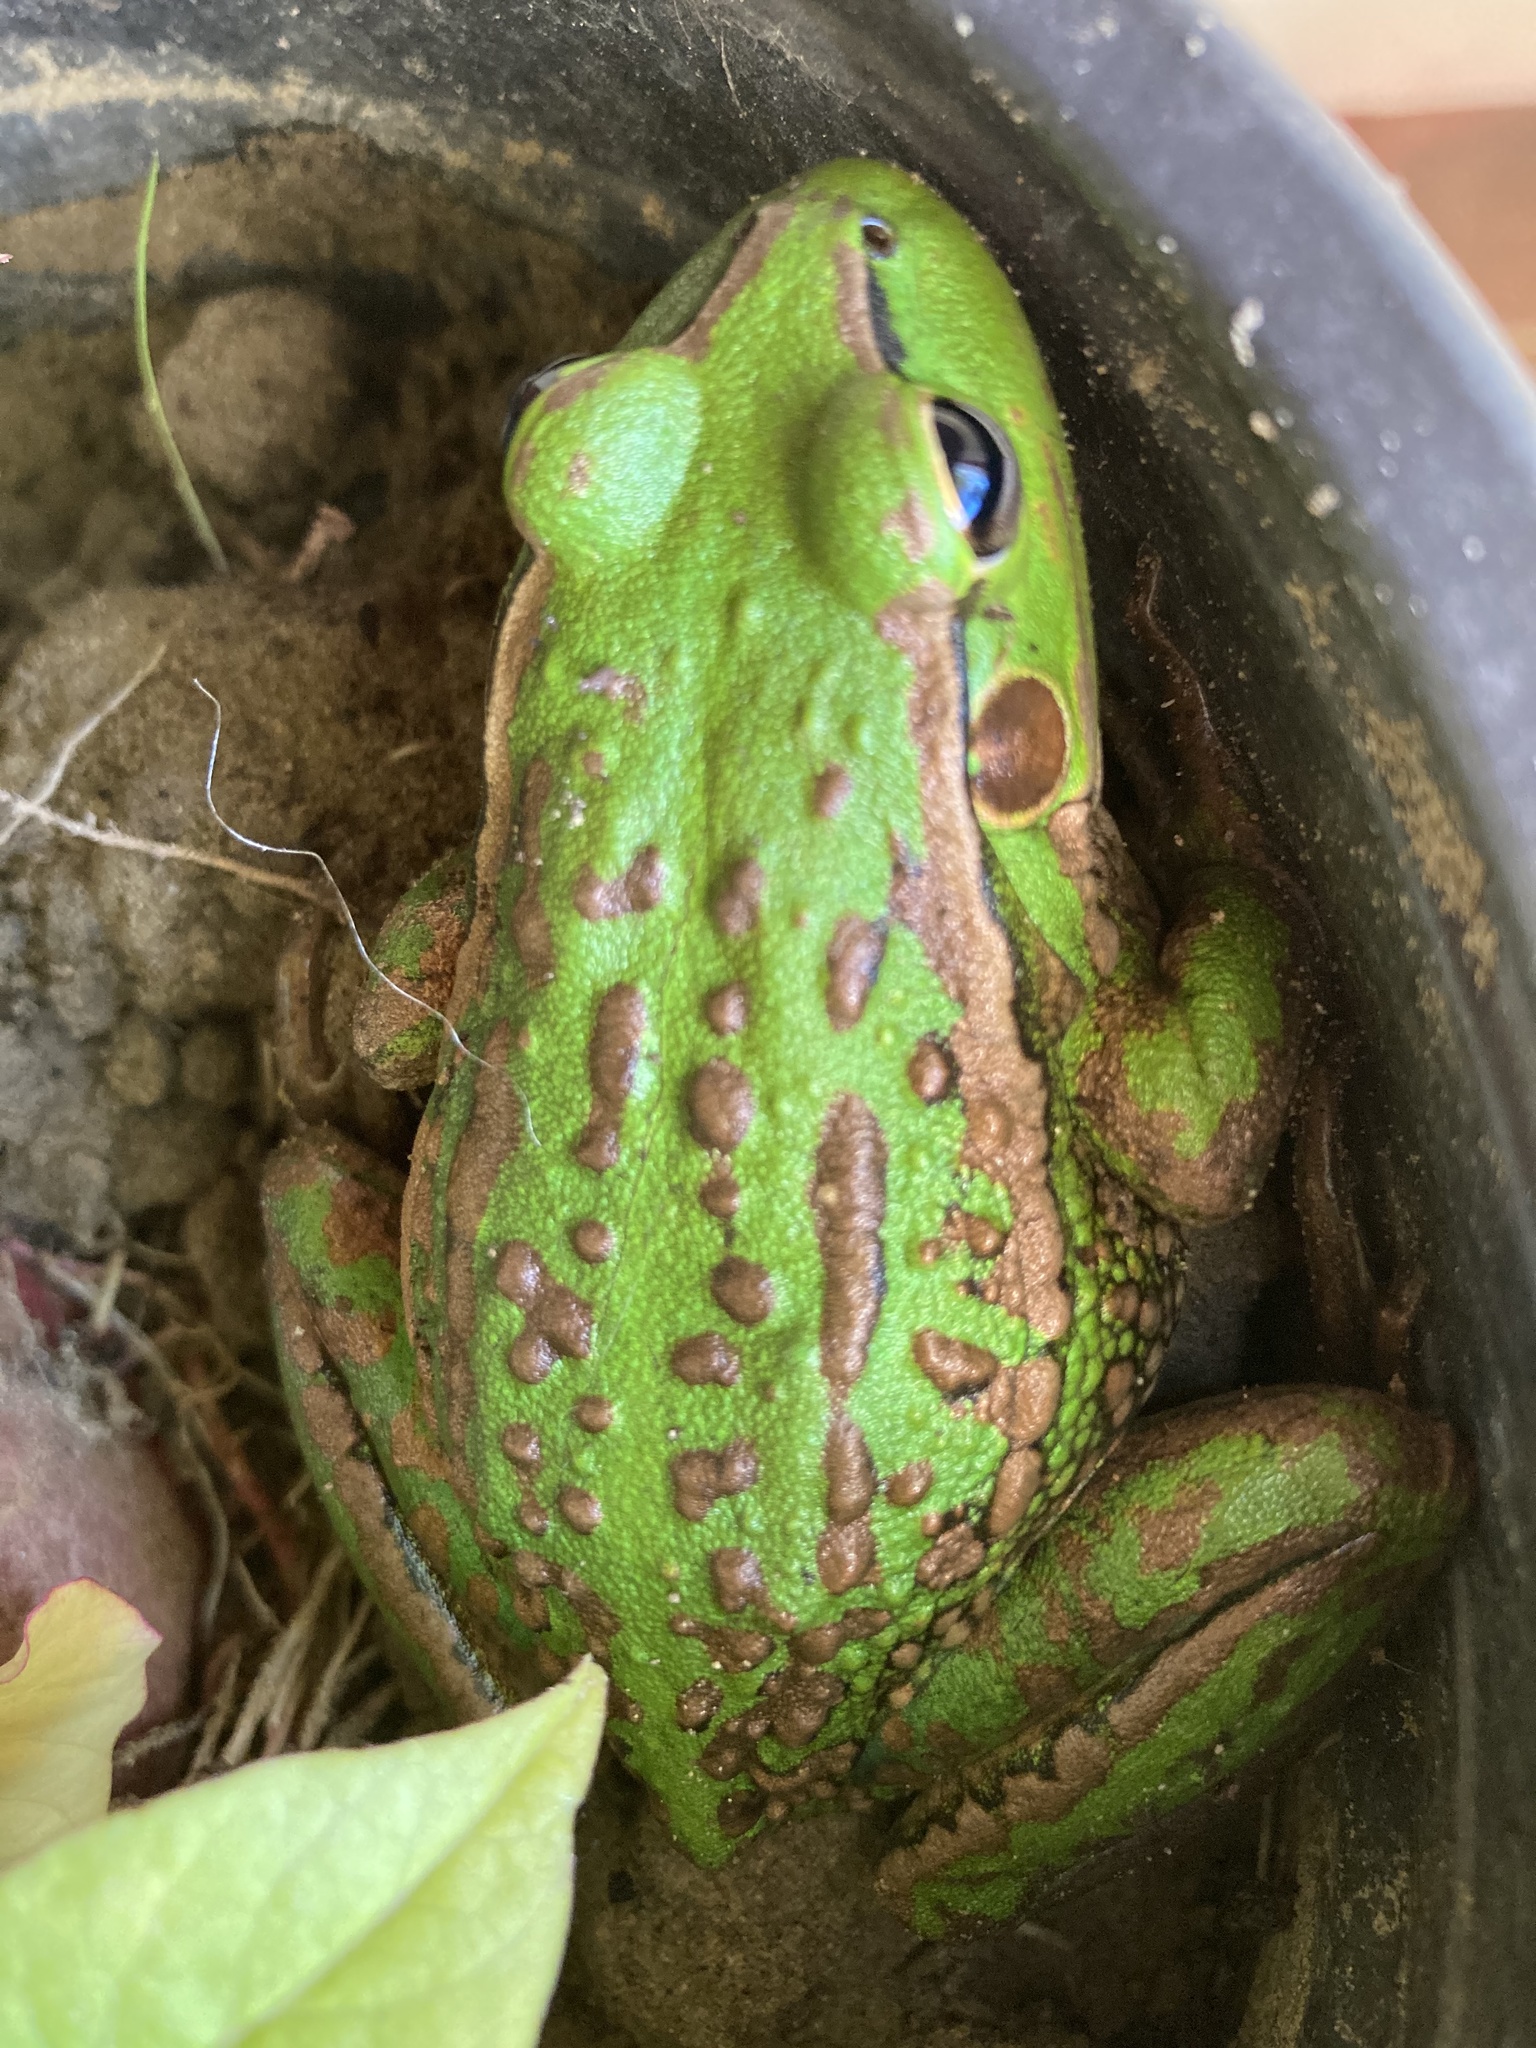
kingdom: Animalia
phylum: Chordata
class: Amphibia
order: Anura
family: Pelodryadidae
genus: Ranoidea
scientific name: Ranoidea raniformis
